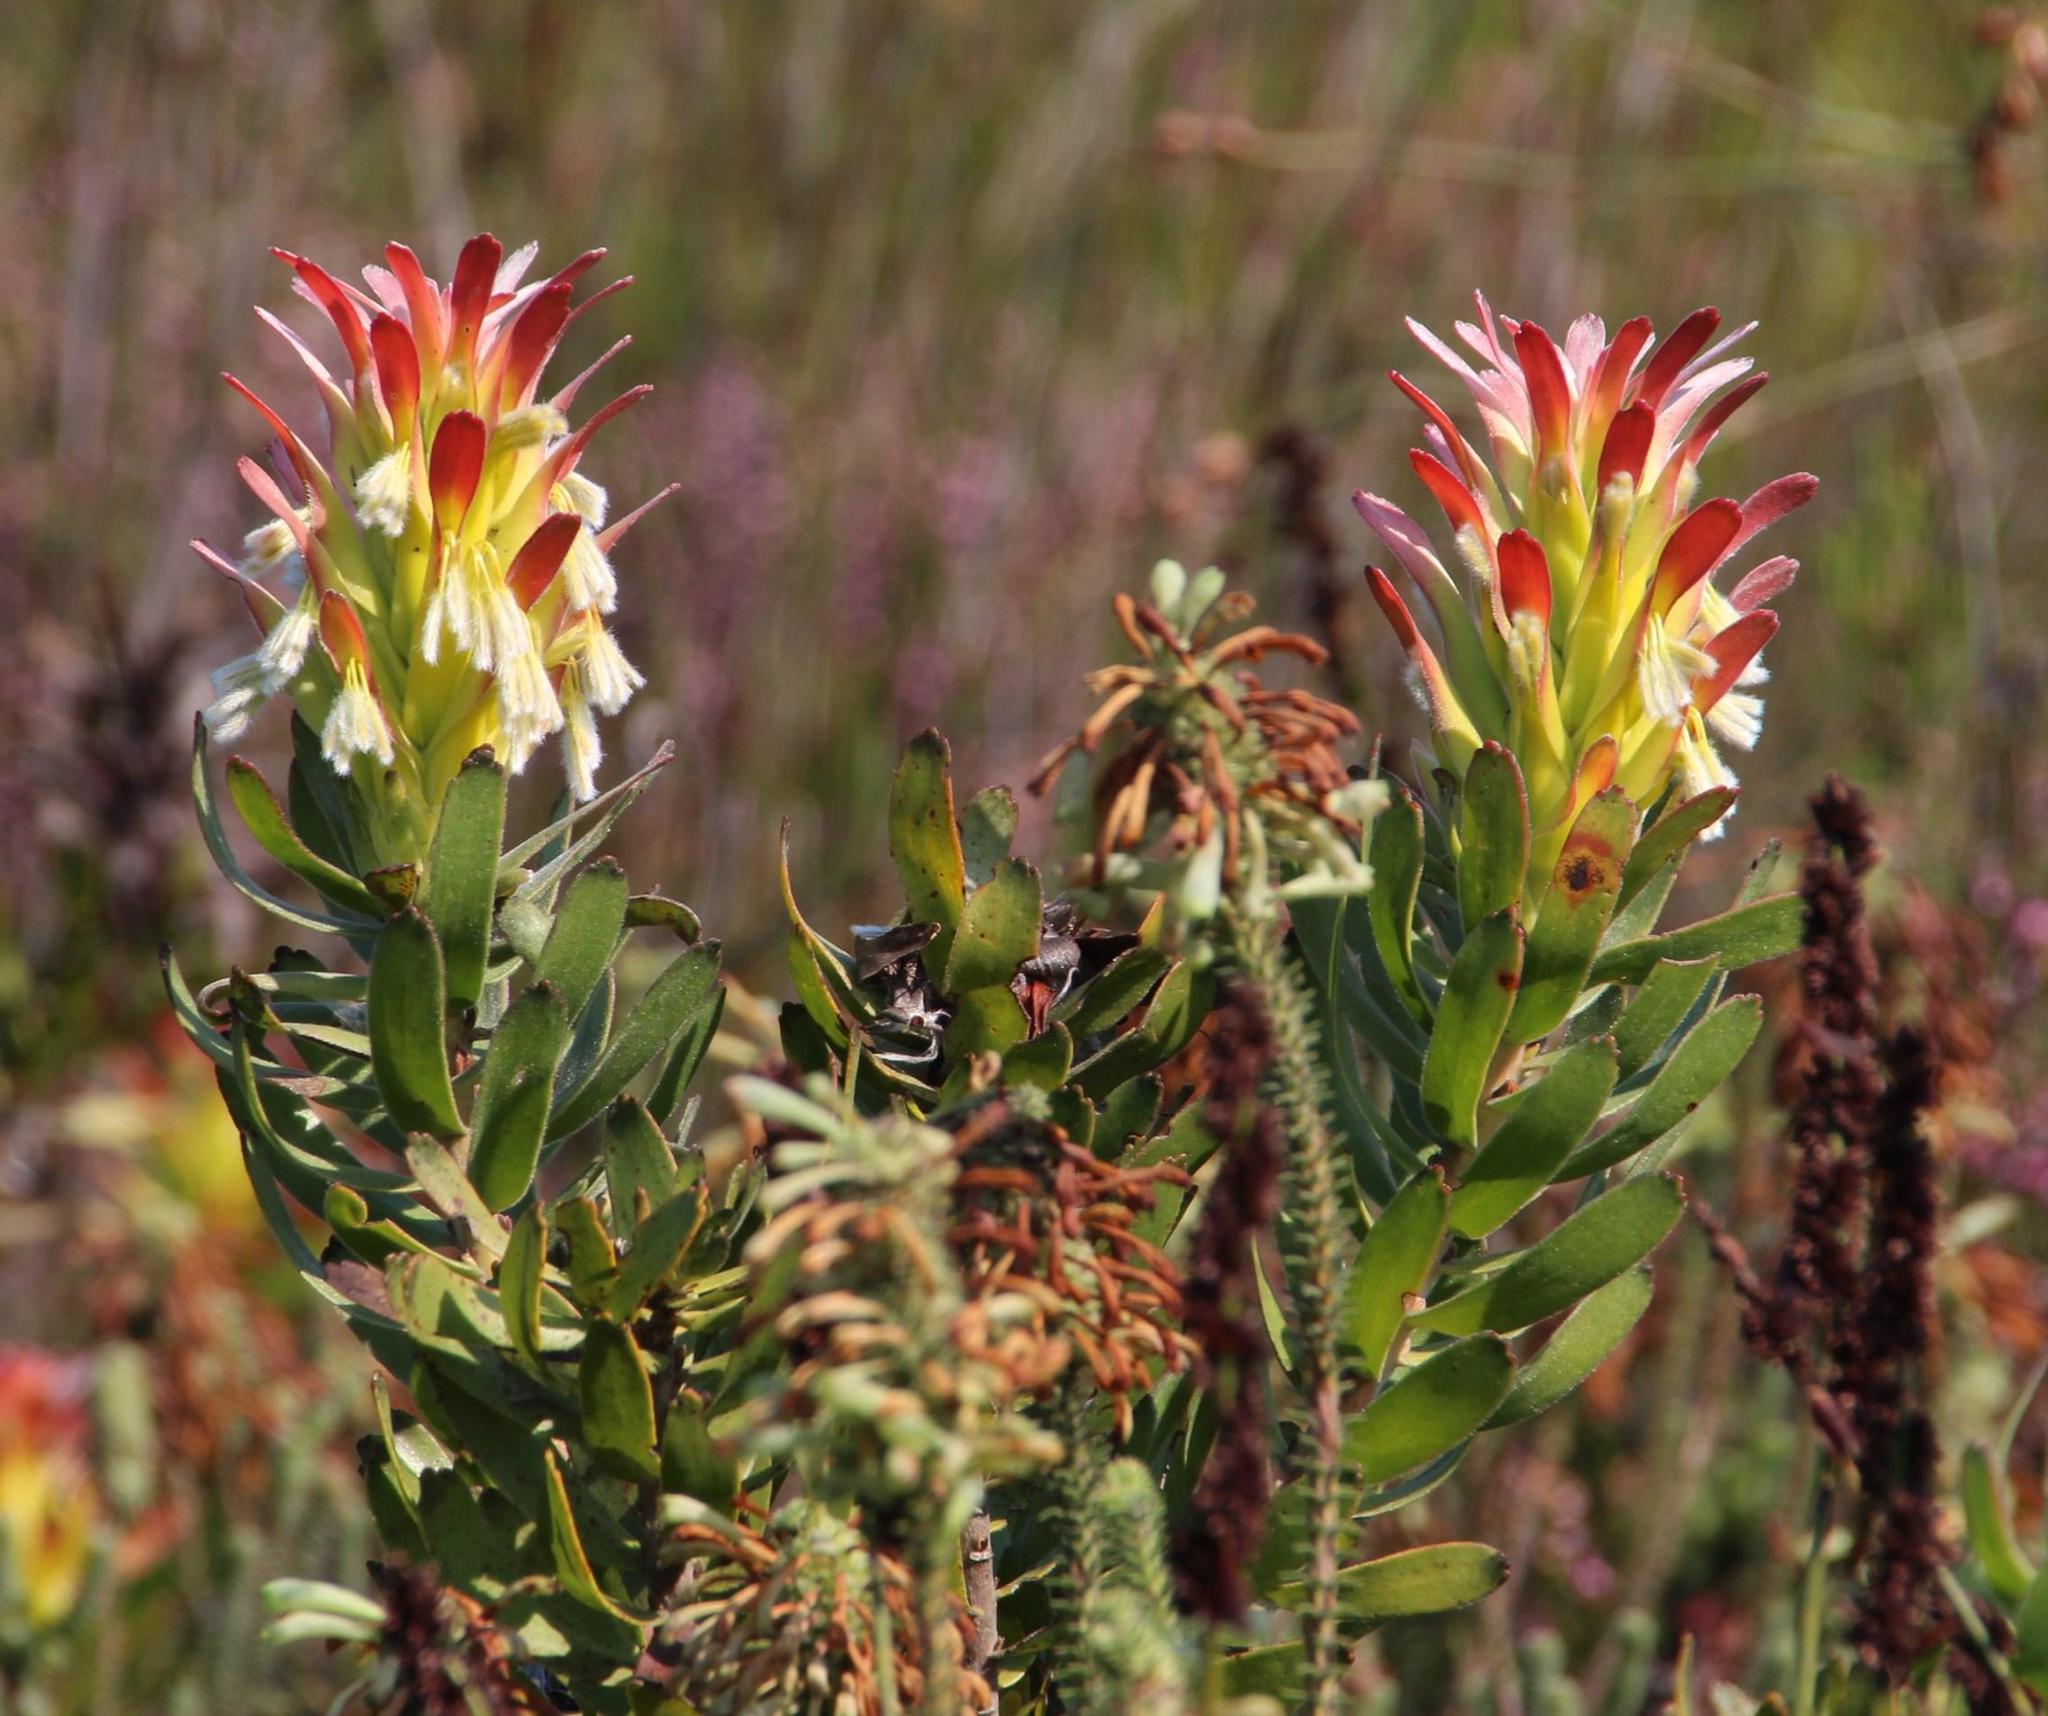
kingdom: Plantae
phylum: Tracheophyta
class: Magnoliopsida
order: Proteales
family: Proteaceae
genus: Mimetes
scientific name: Mimetes cucullatus
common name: Common pagoda
